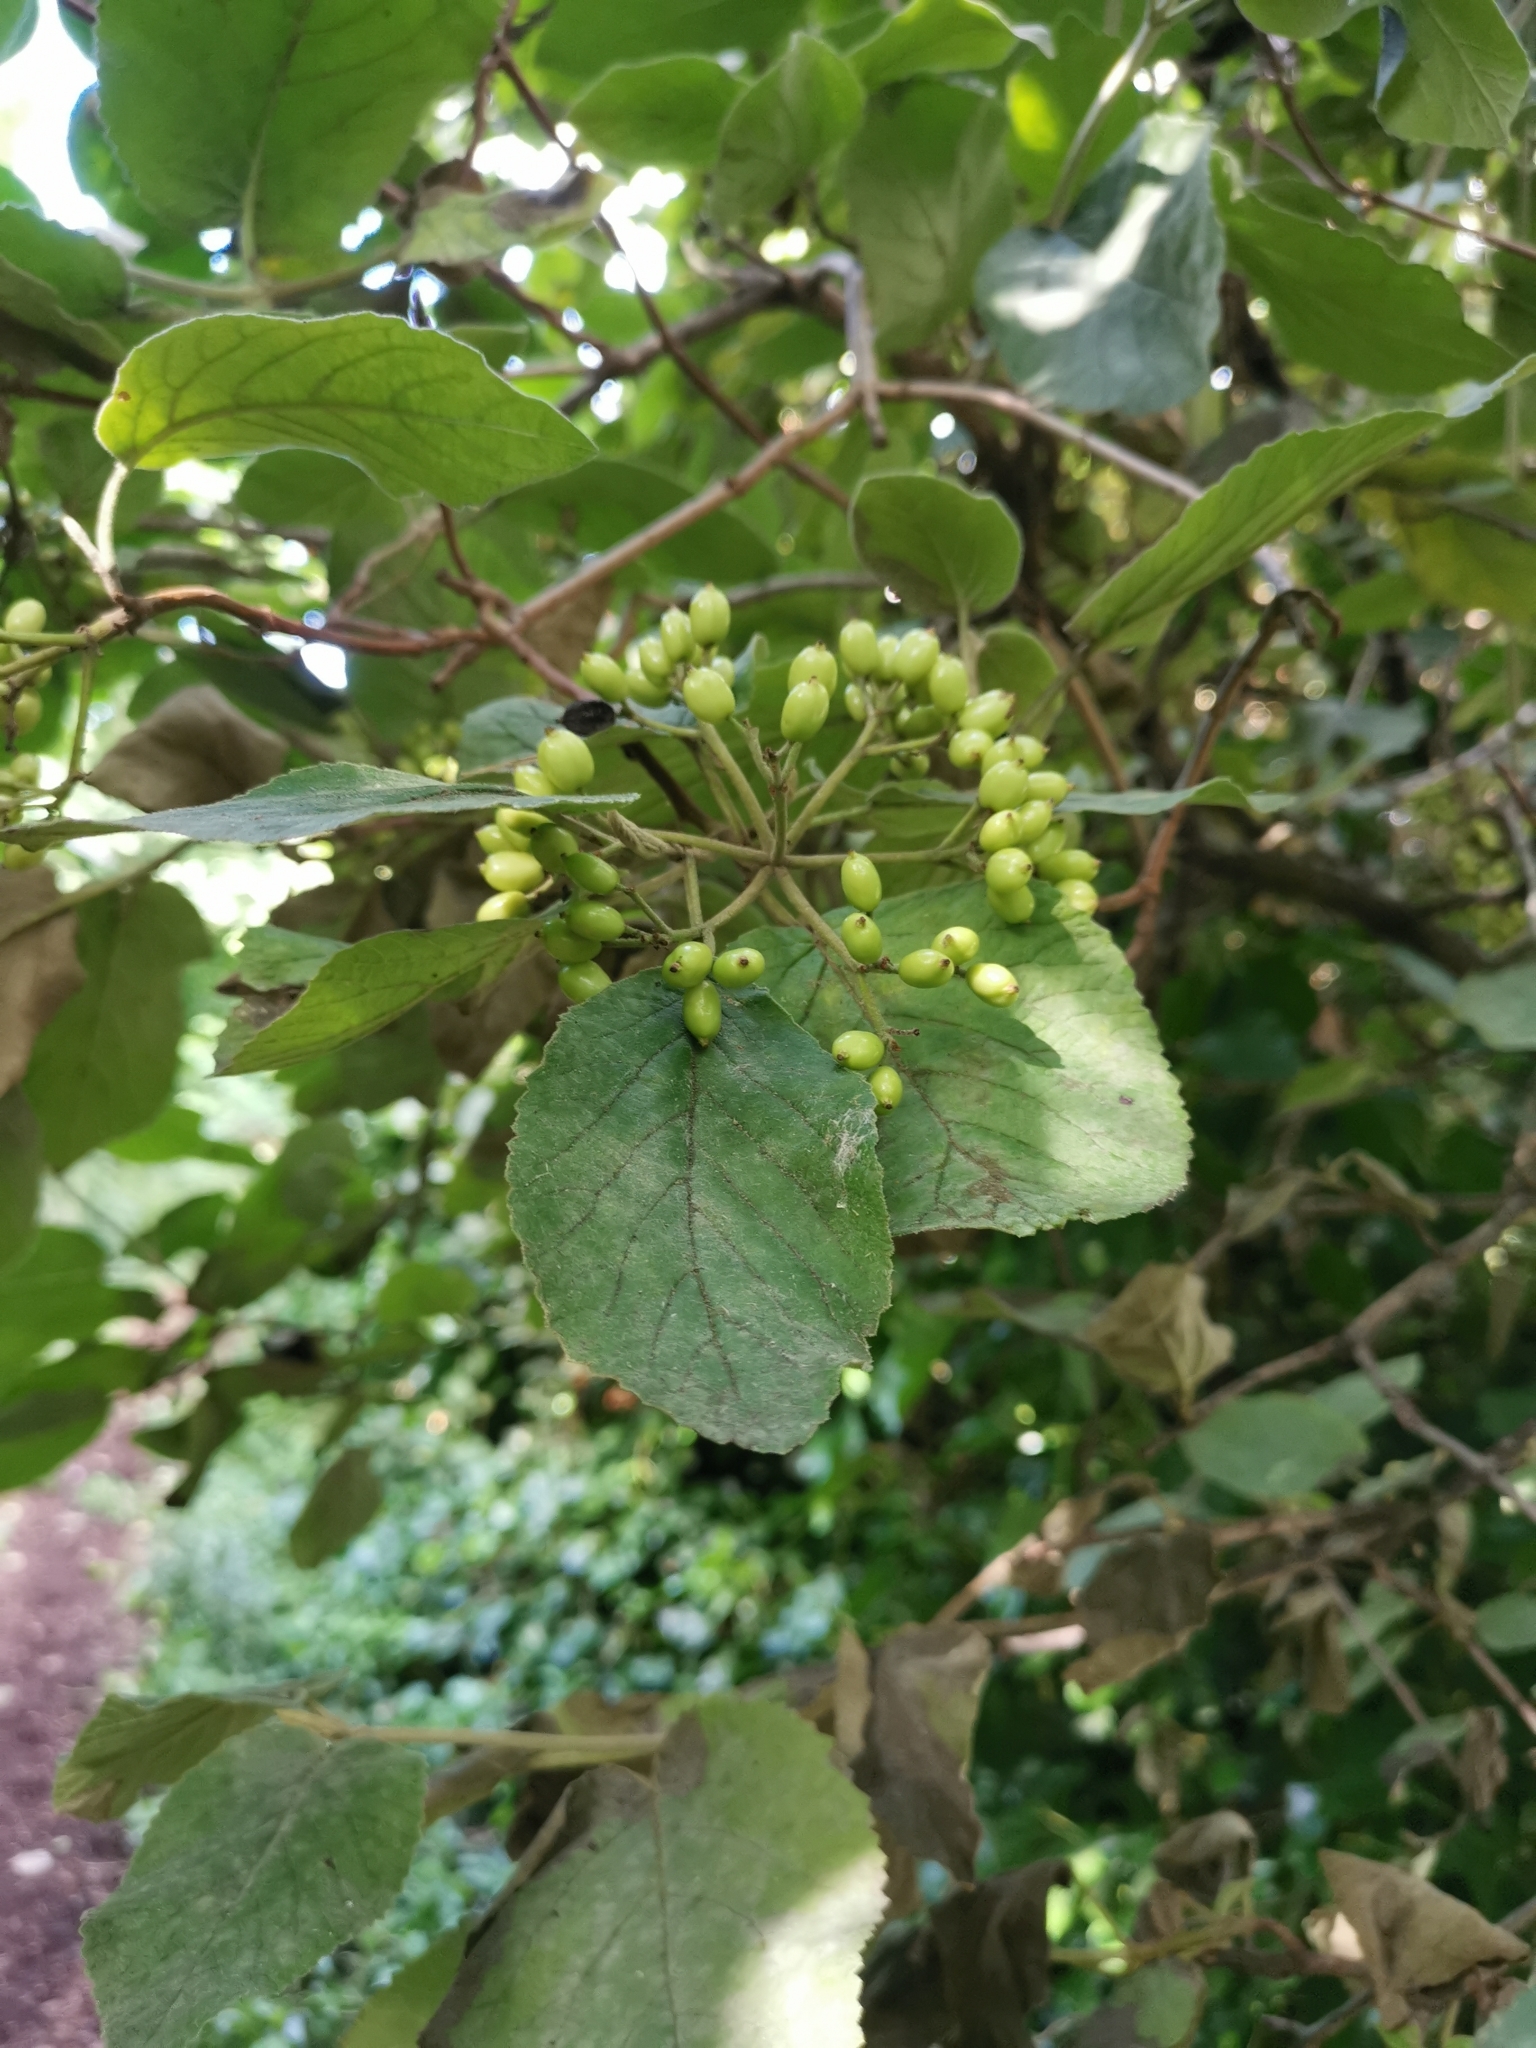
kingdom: Plantae
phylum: Tracheophyta
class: Magnoliopsida
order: Dipsacales
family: Viburnaceae
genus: Viburnum
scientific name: Viburnum lantana
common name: Wayfaring tree
